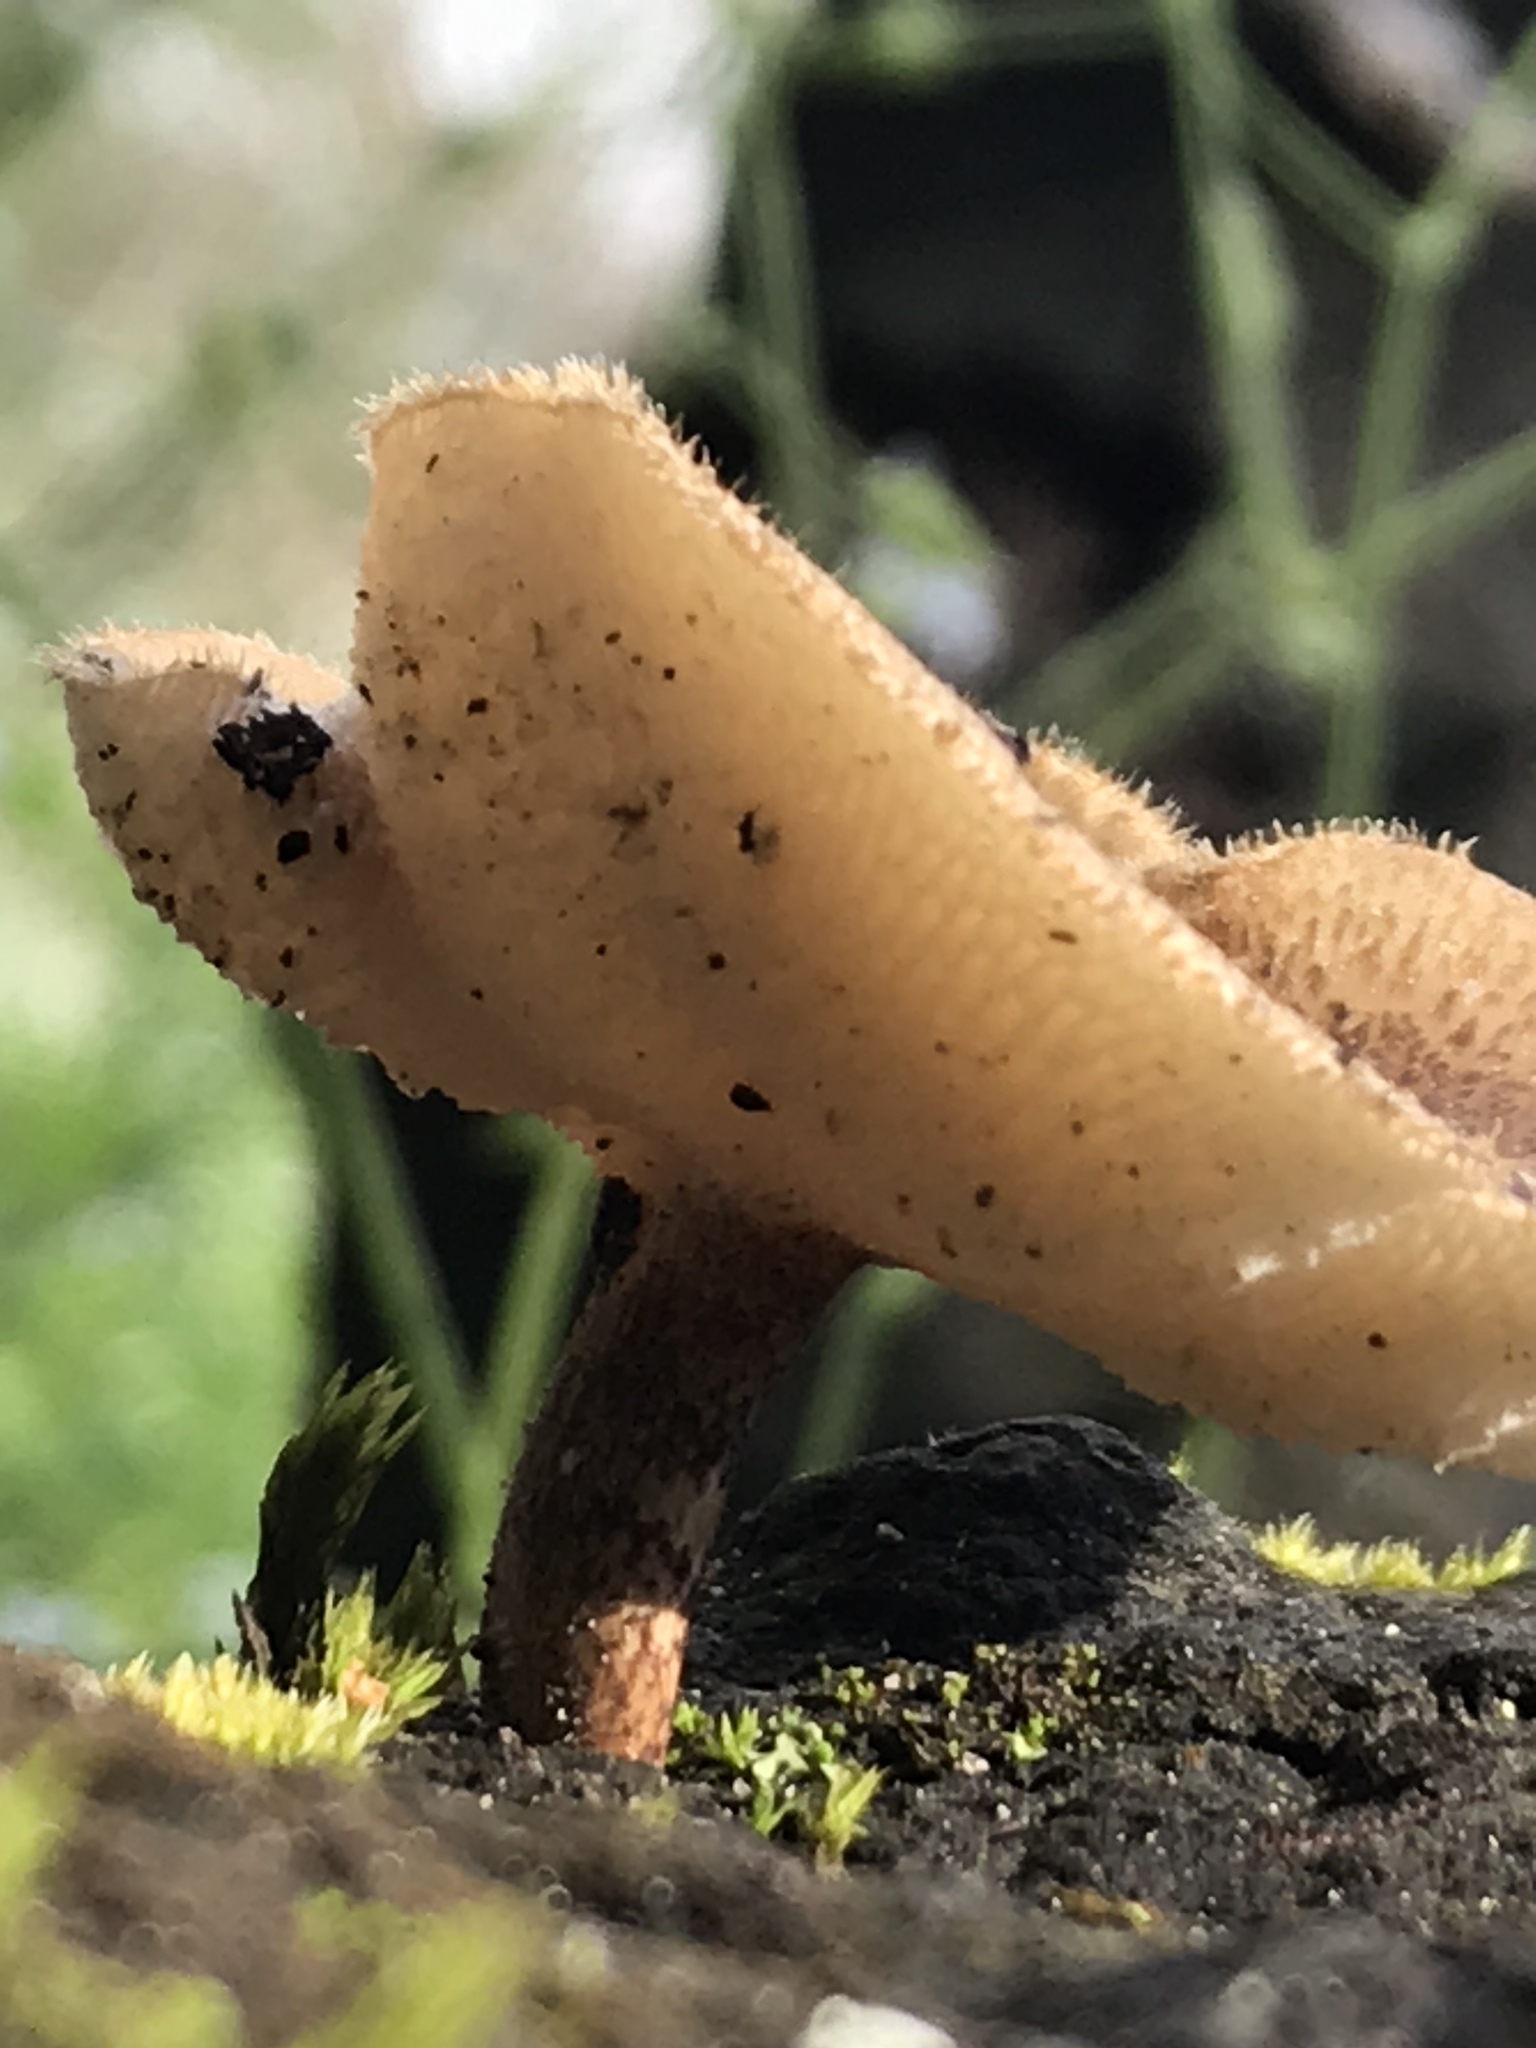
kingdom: Fungi
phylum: Basidiomycota
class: Agaricomycetes
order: Polyporales
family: Polyporaceae
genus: Lentinus
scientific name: Lentinus arcularius
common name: Spring polypore
